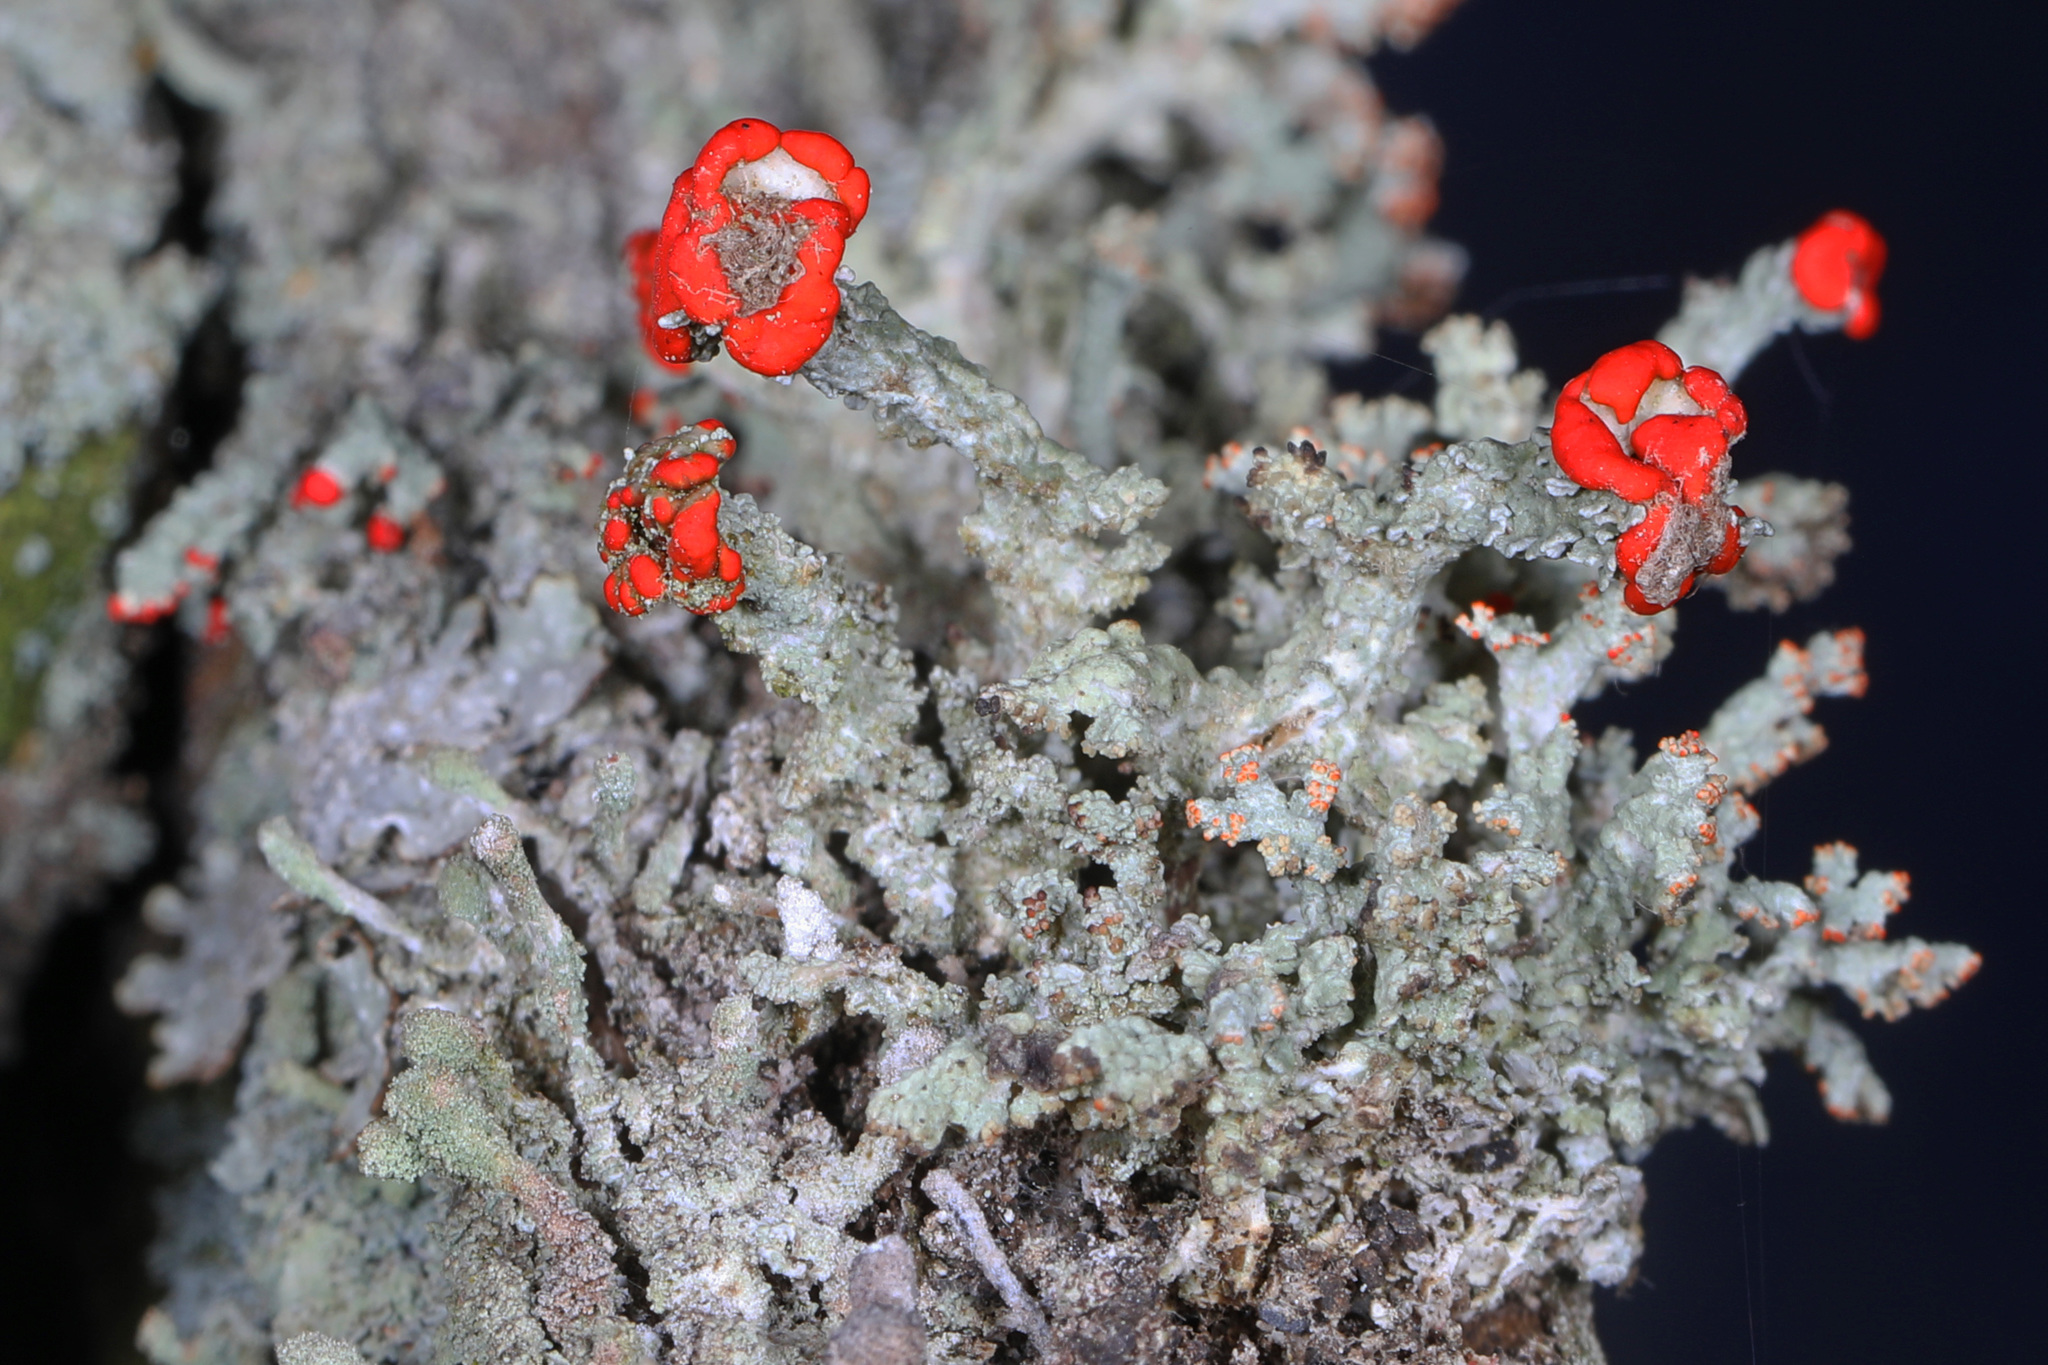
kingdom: Fungi
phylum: Ascomycota
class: Lecanoromycetes
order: Lecanorales
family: Cladoniaceae
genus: Cladonia
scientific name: Cladonia didyma
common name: Southern soldiers
